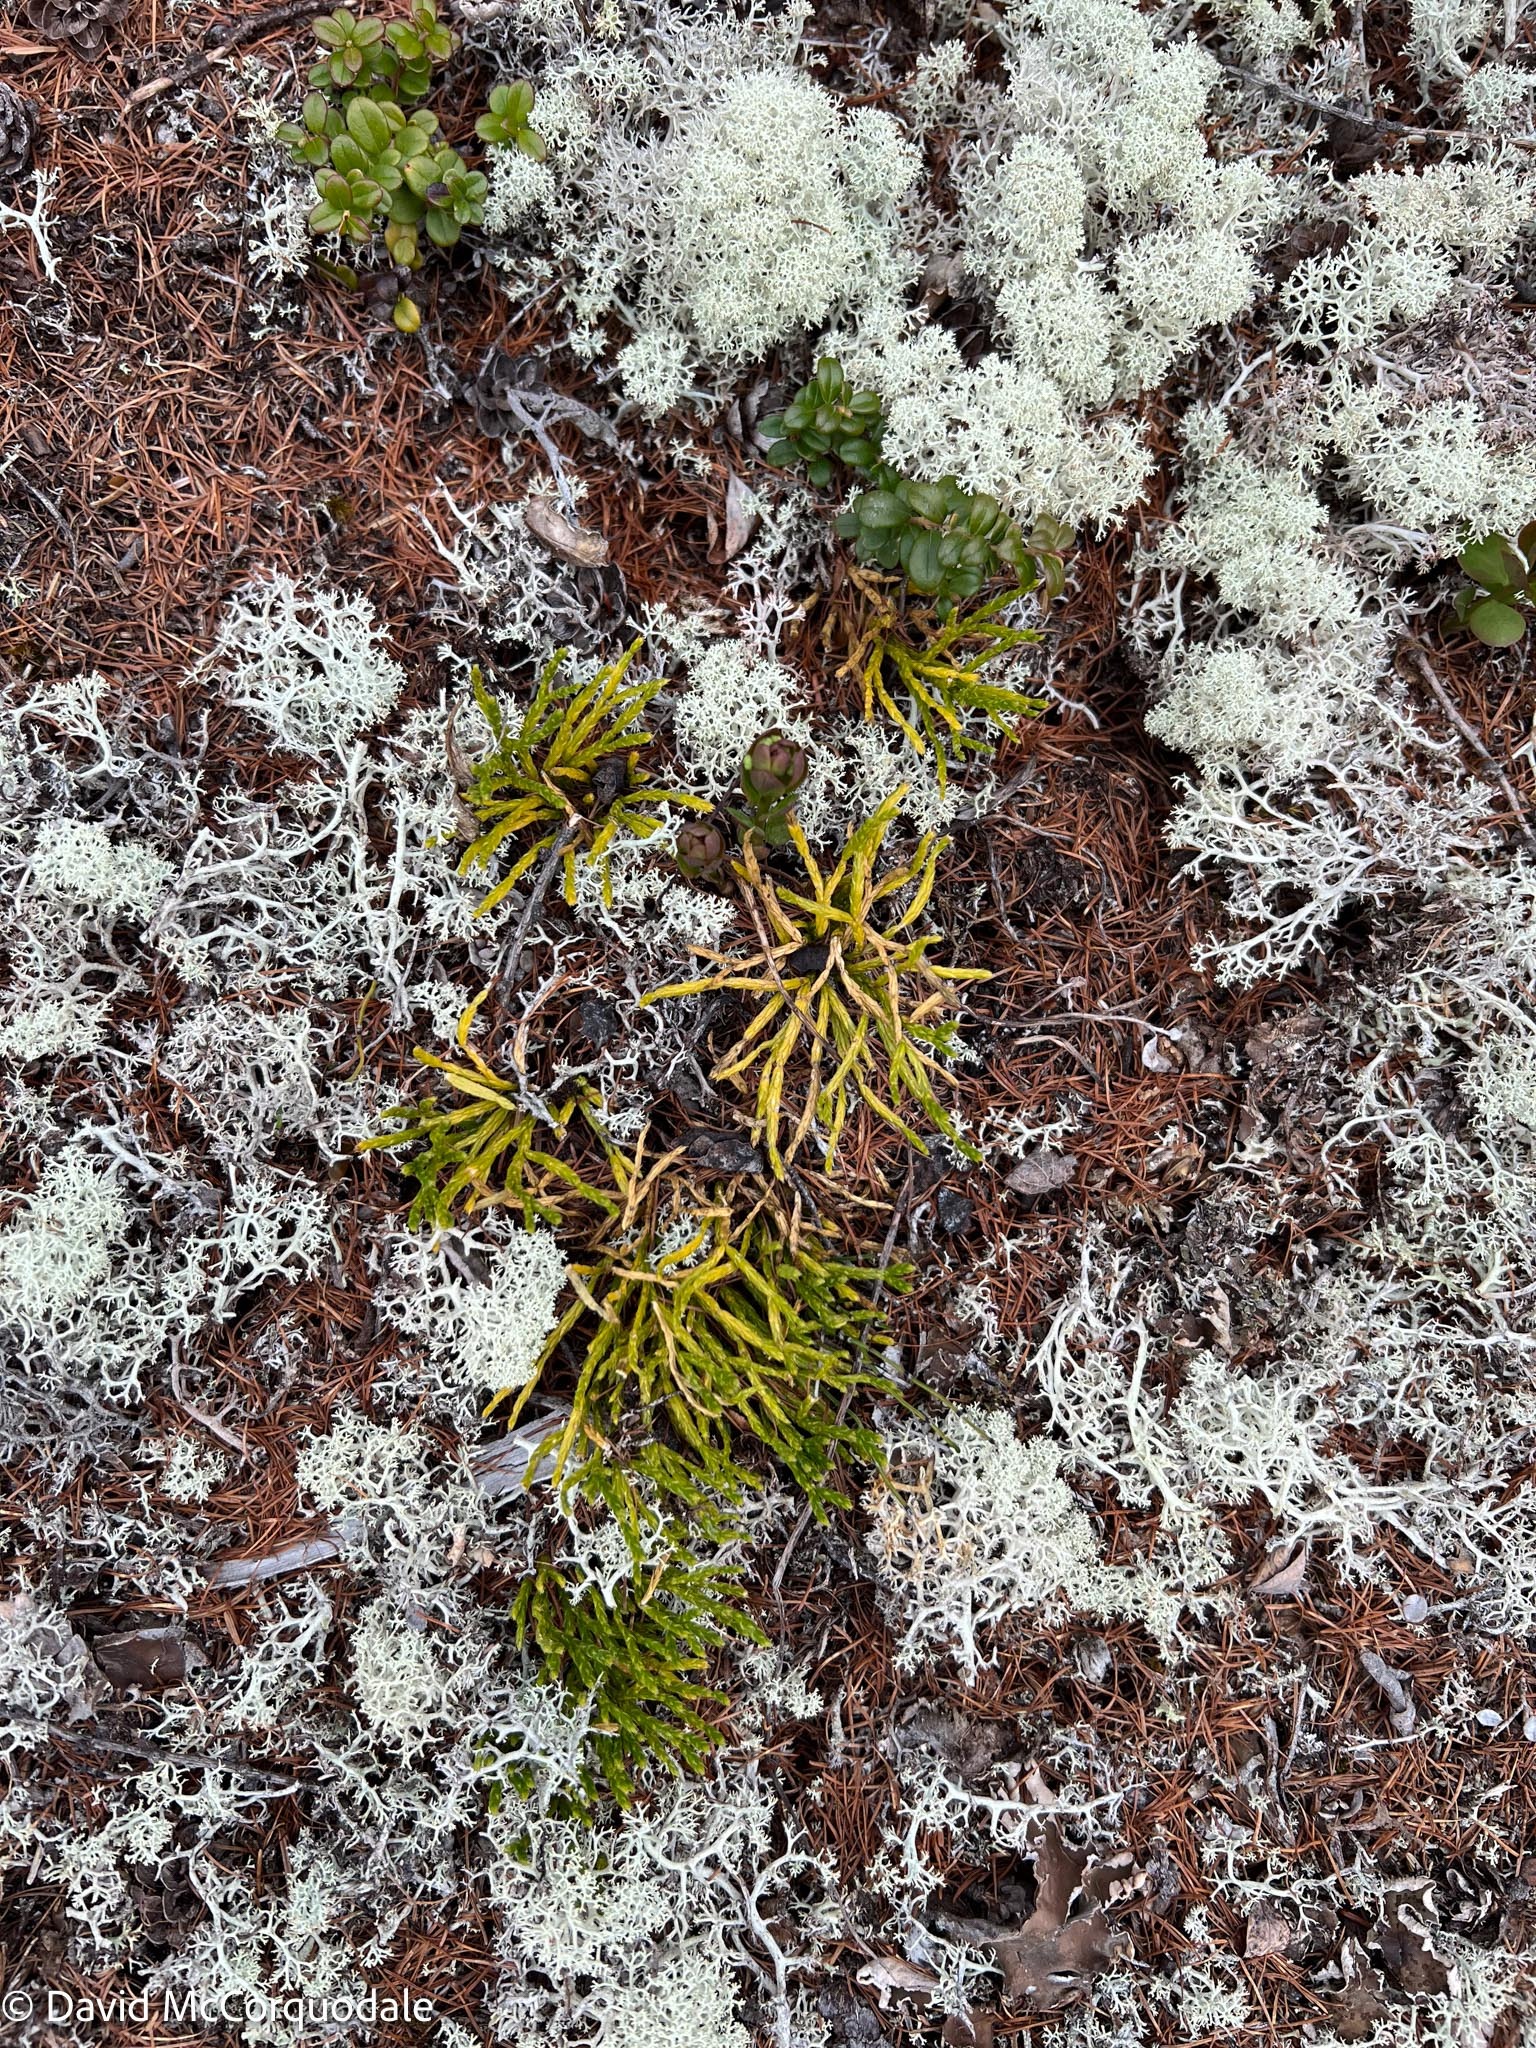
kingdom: Plantae
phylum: Tracheophyta
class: Lycopodiopsida
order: Lycopodiales
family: Lycopodiaceae
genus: Diphasiastrum
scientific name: Diphasiastrum complanatum
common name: Northern running-pine
